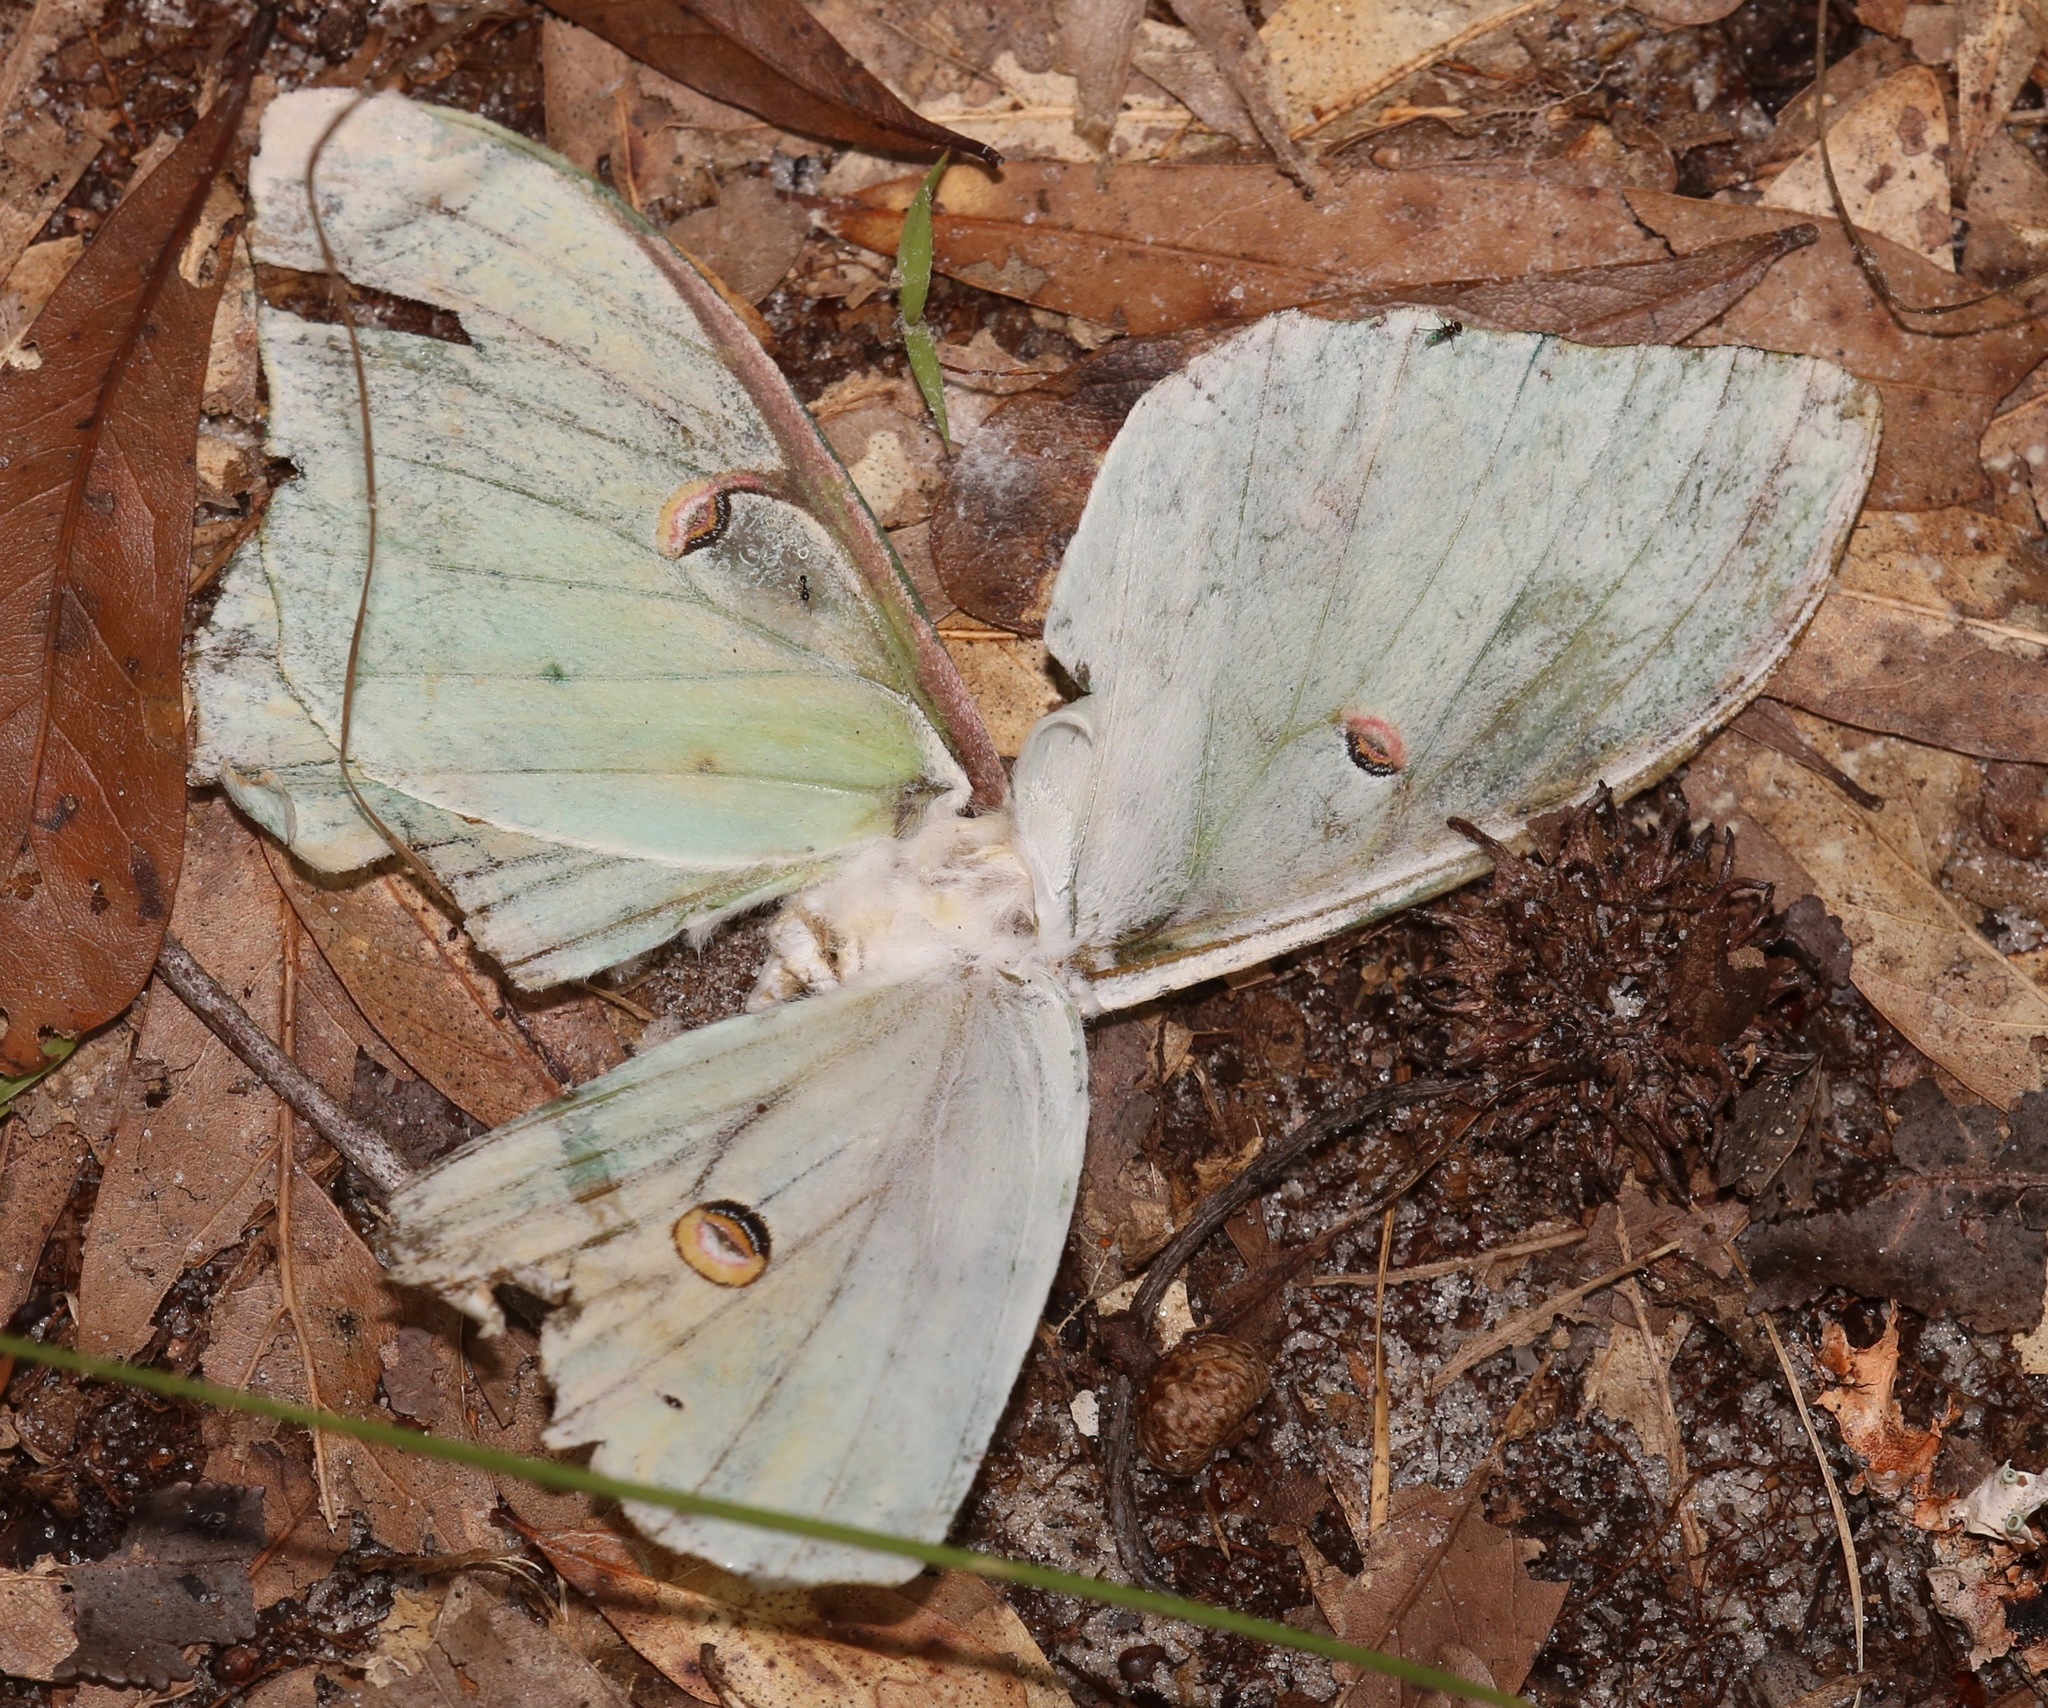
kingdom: Animalia
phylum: Arthropoda
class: Insecta
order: Lepidoptera
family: Saturniidae
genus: Actias
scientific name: Actias luna
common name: Luna moth
